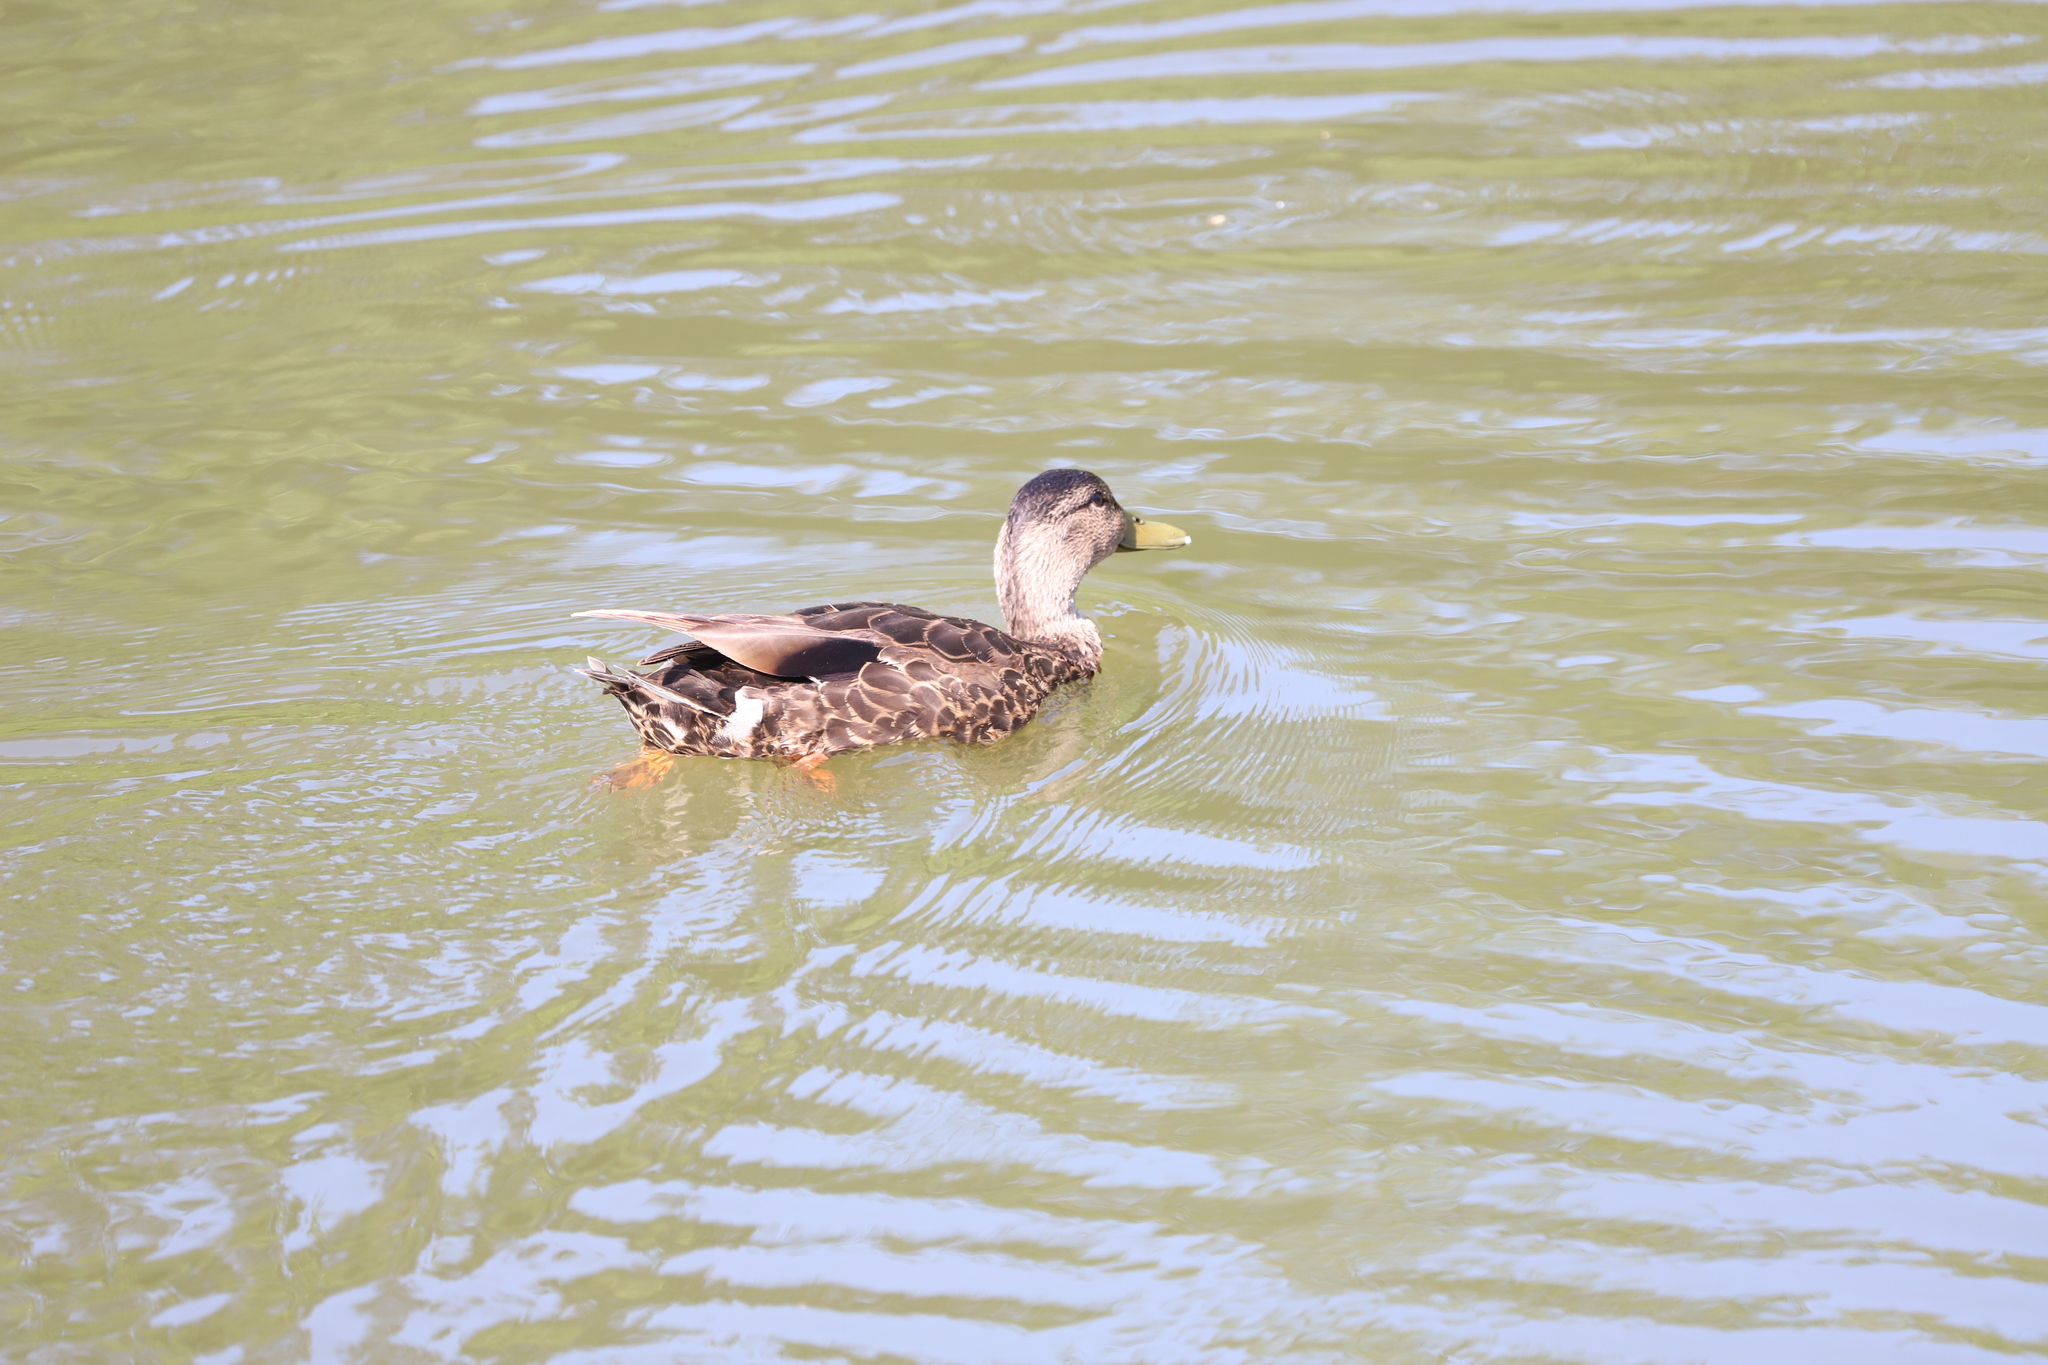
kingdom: Animalia
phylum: Chordata
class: Aves
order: Anseriformes
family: Anatidae
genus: Anas
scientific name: Anas platyrhynchos
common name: Mallard
